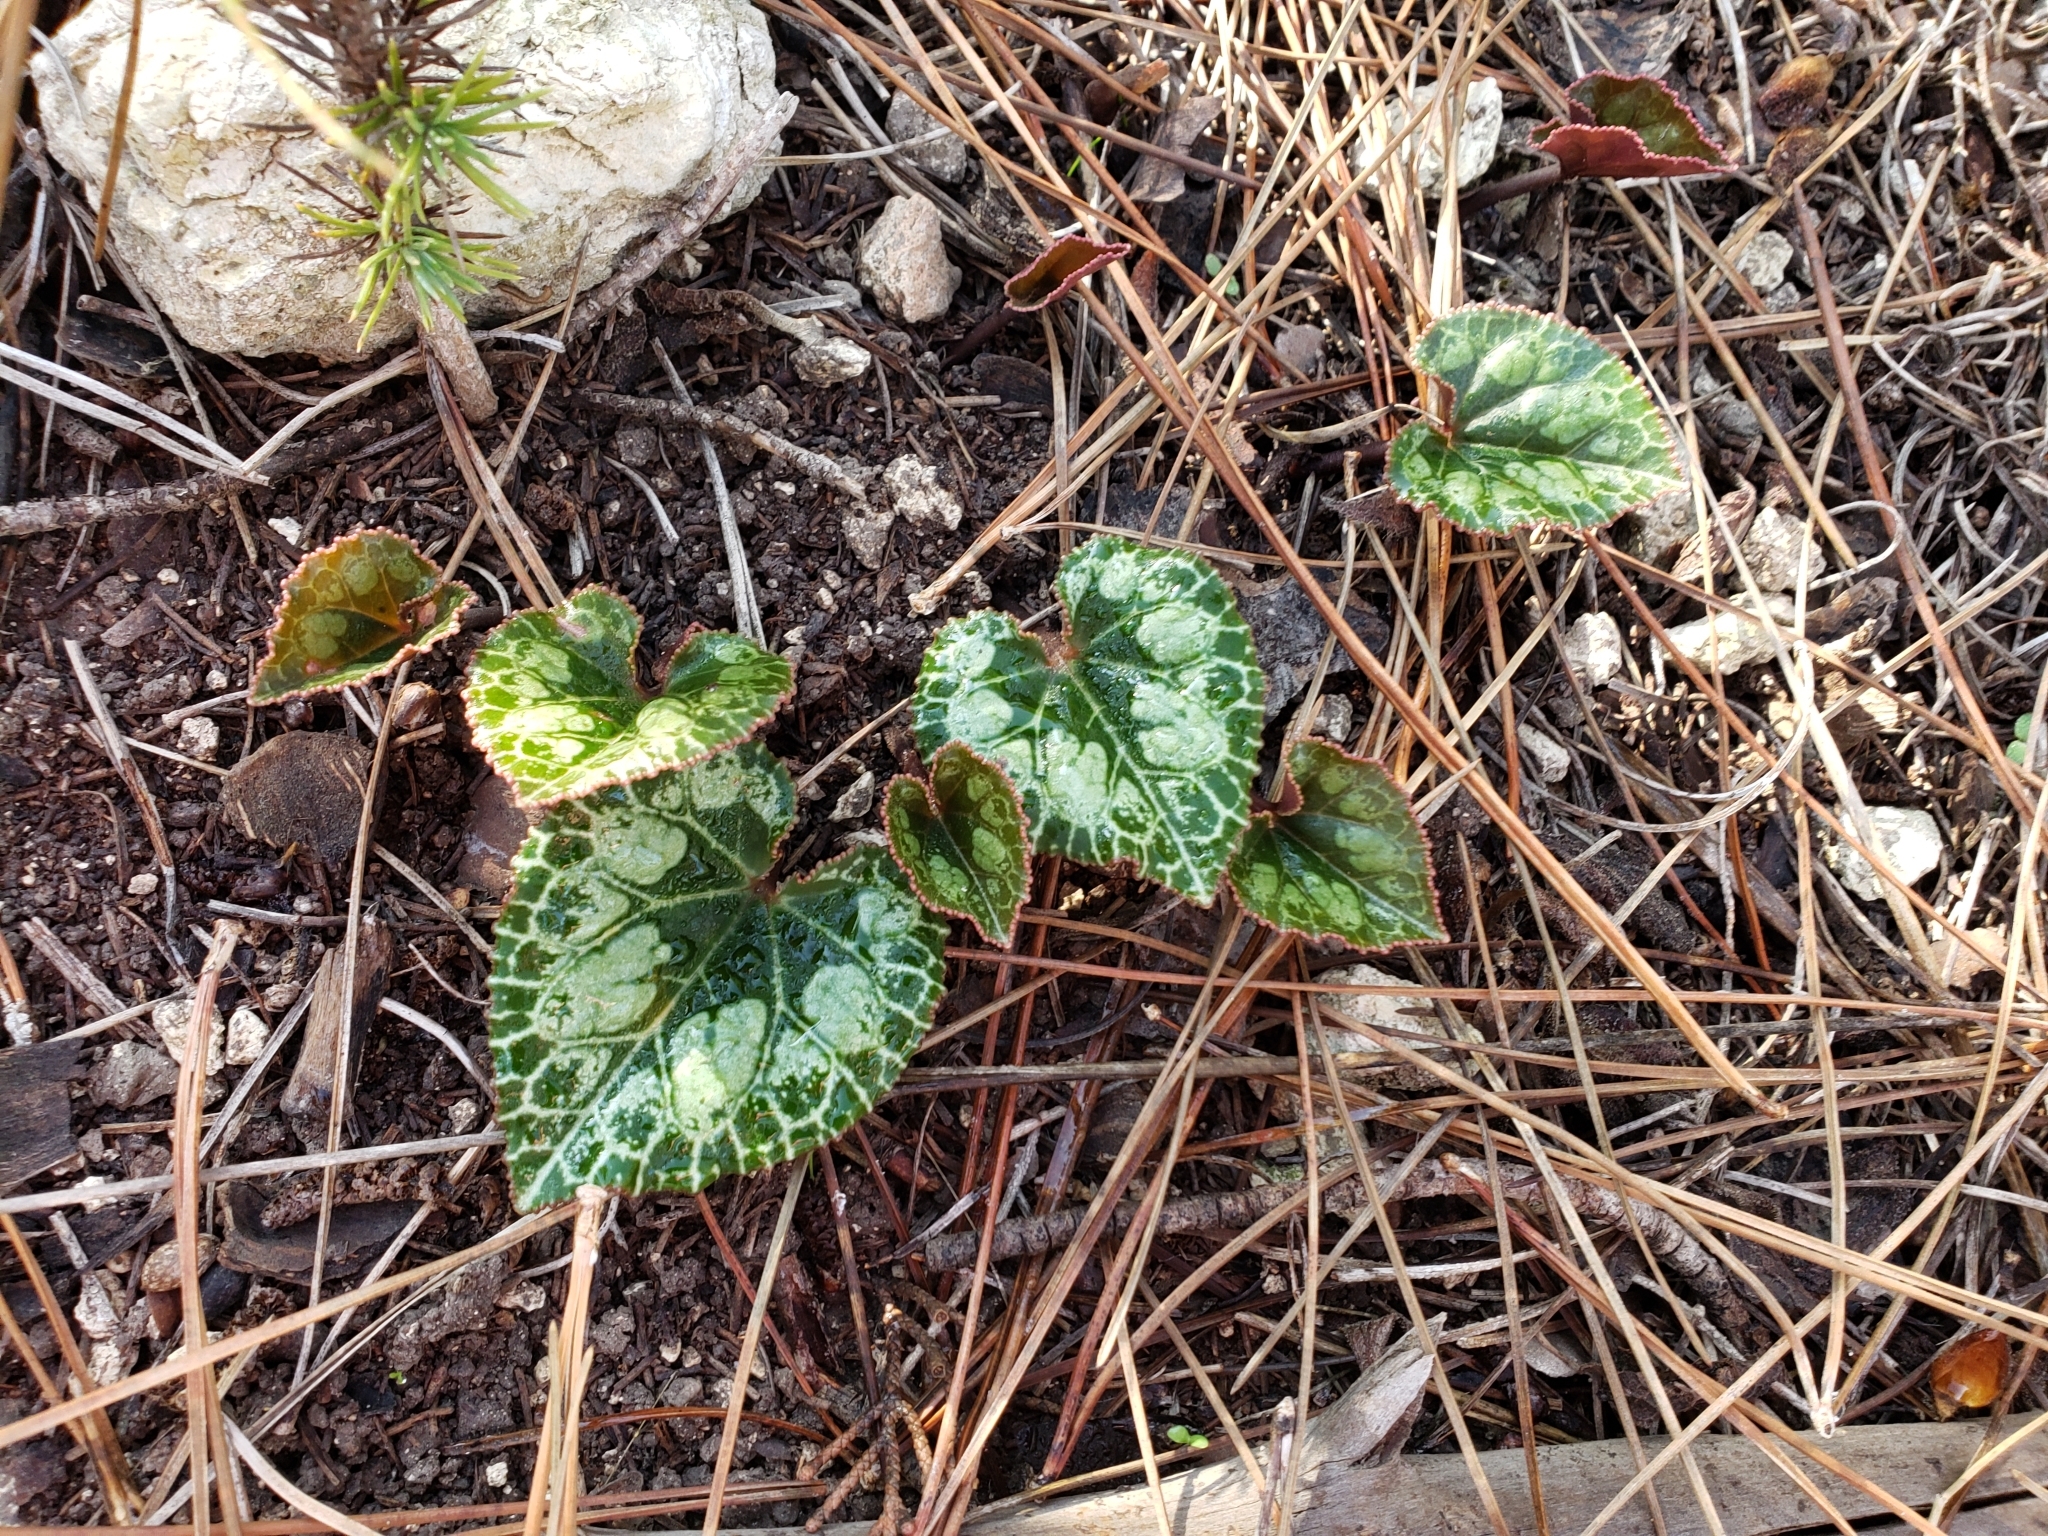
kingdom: Plantae
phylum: Tracheophyta
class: Magnoliopsida
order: Ericales
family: Primulaceae
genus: Cyclamen
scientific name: Cyclamen persicum
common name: Florist's cyclamen
